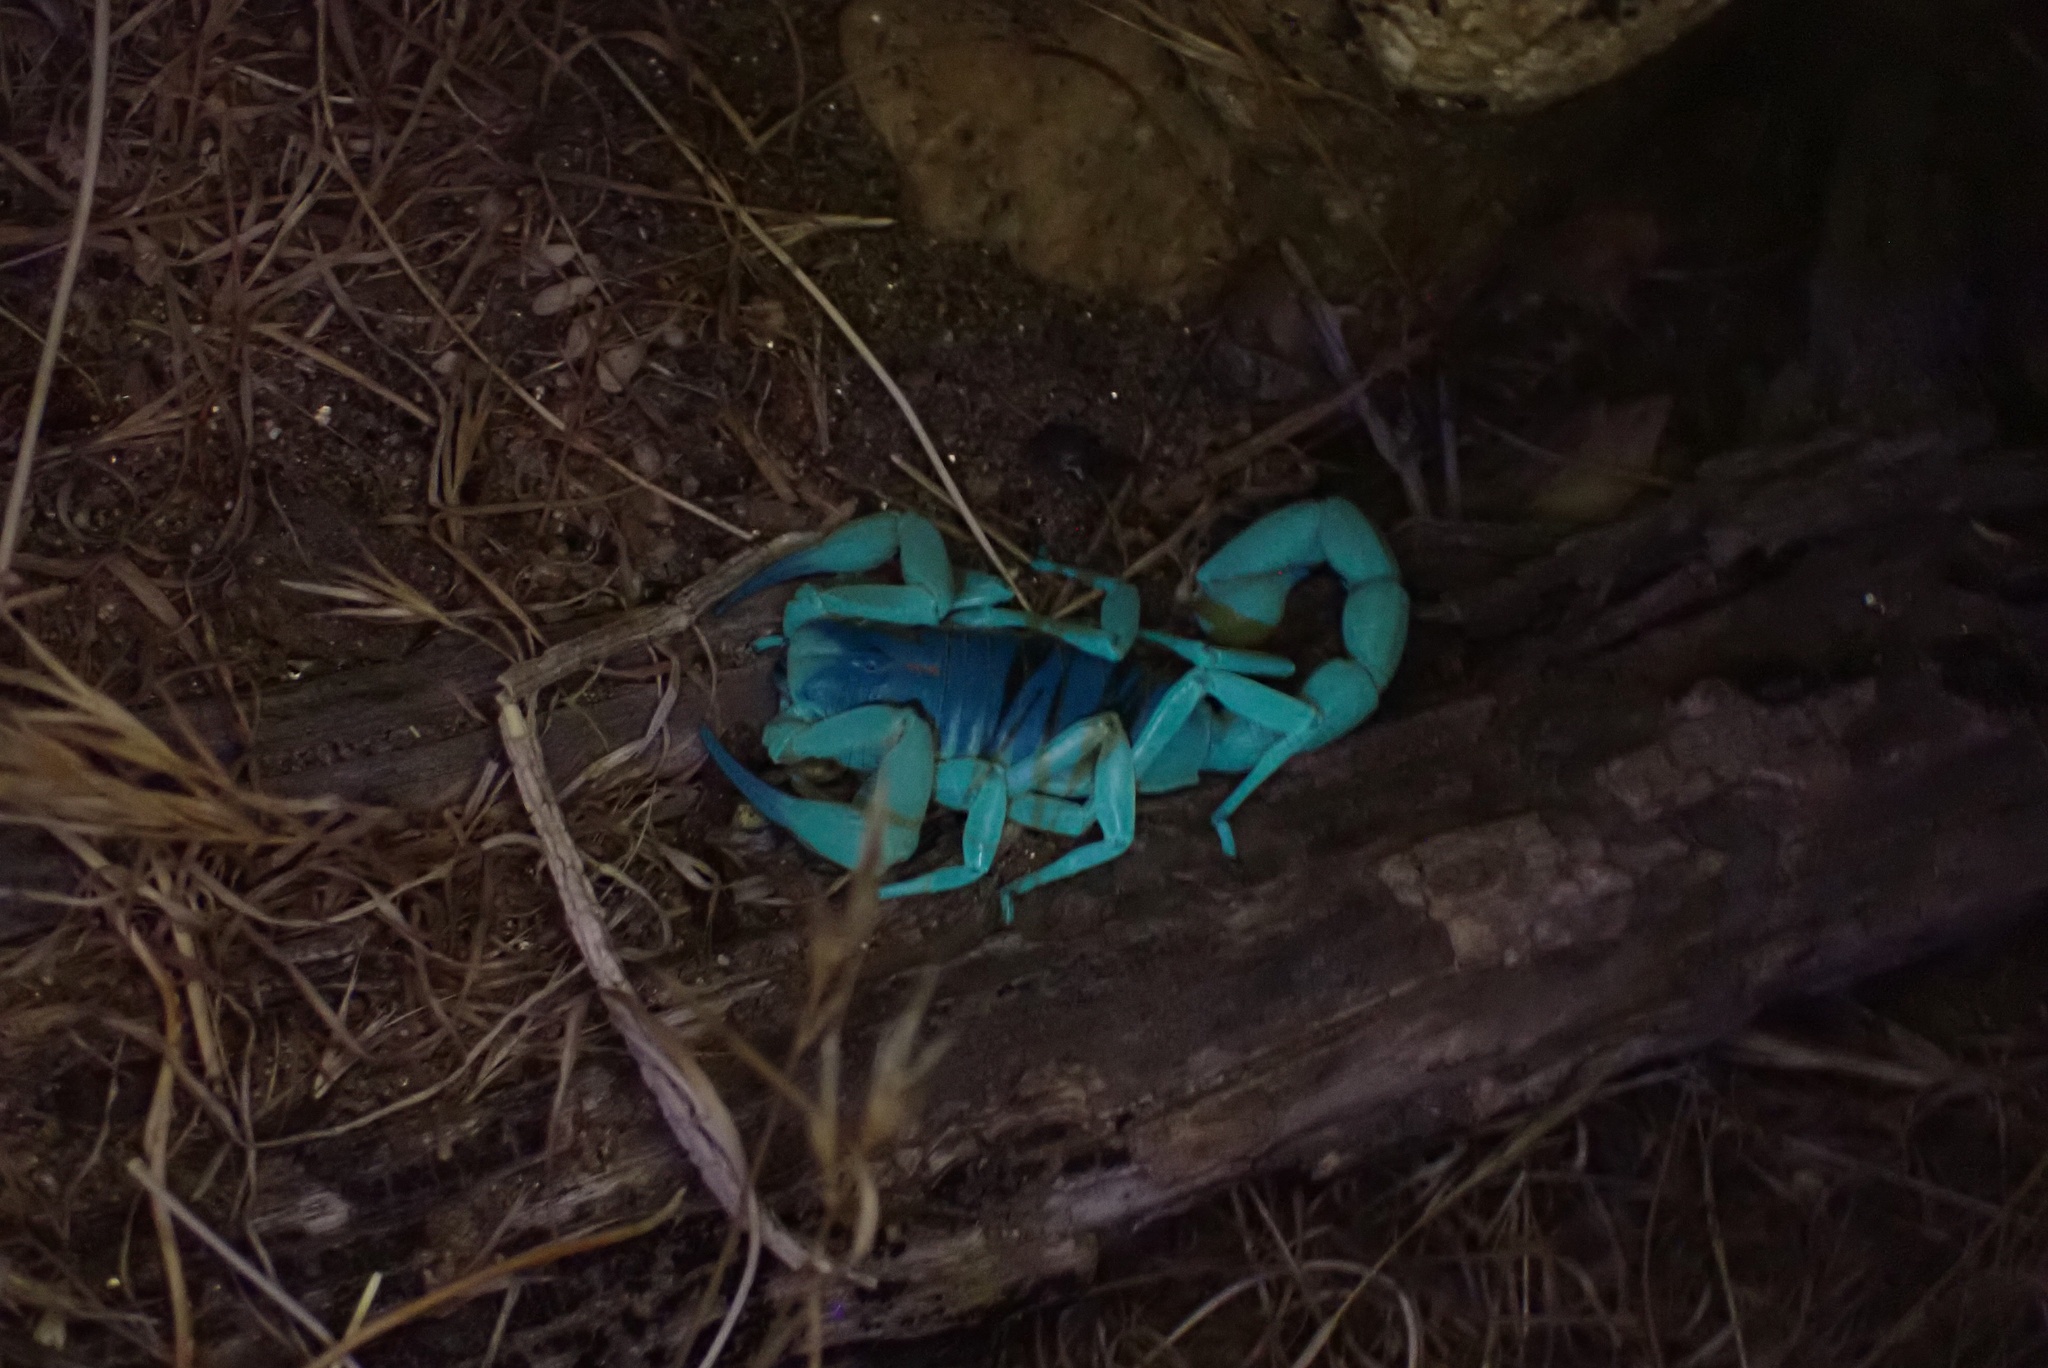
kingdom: Animalia
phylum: Arthropoda
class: Arachnida
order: Scorpiones
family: Hadruridae
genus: Hadrurus
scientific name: Hadrurus anzaborrego
